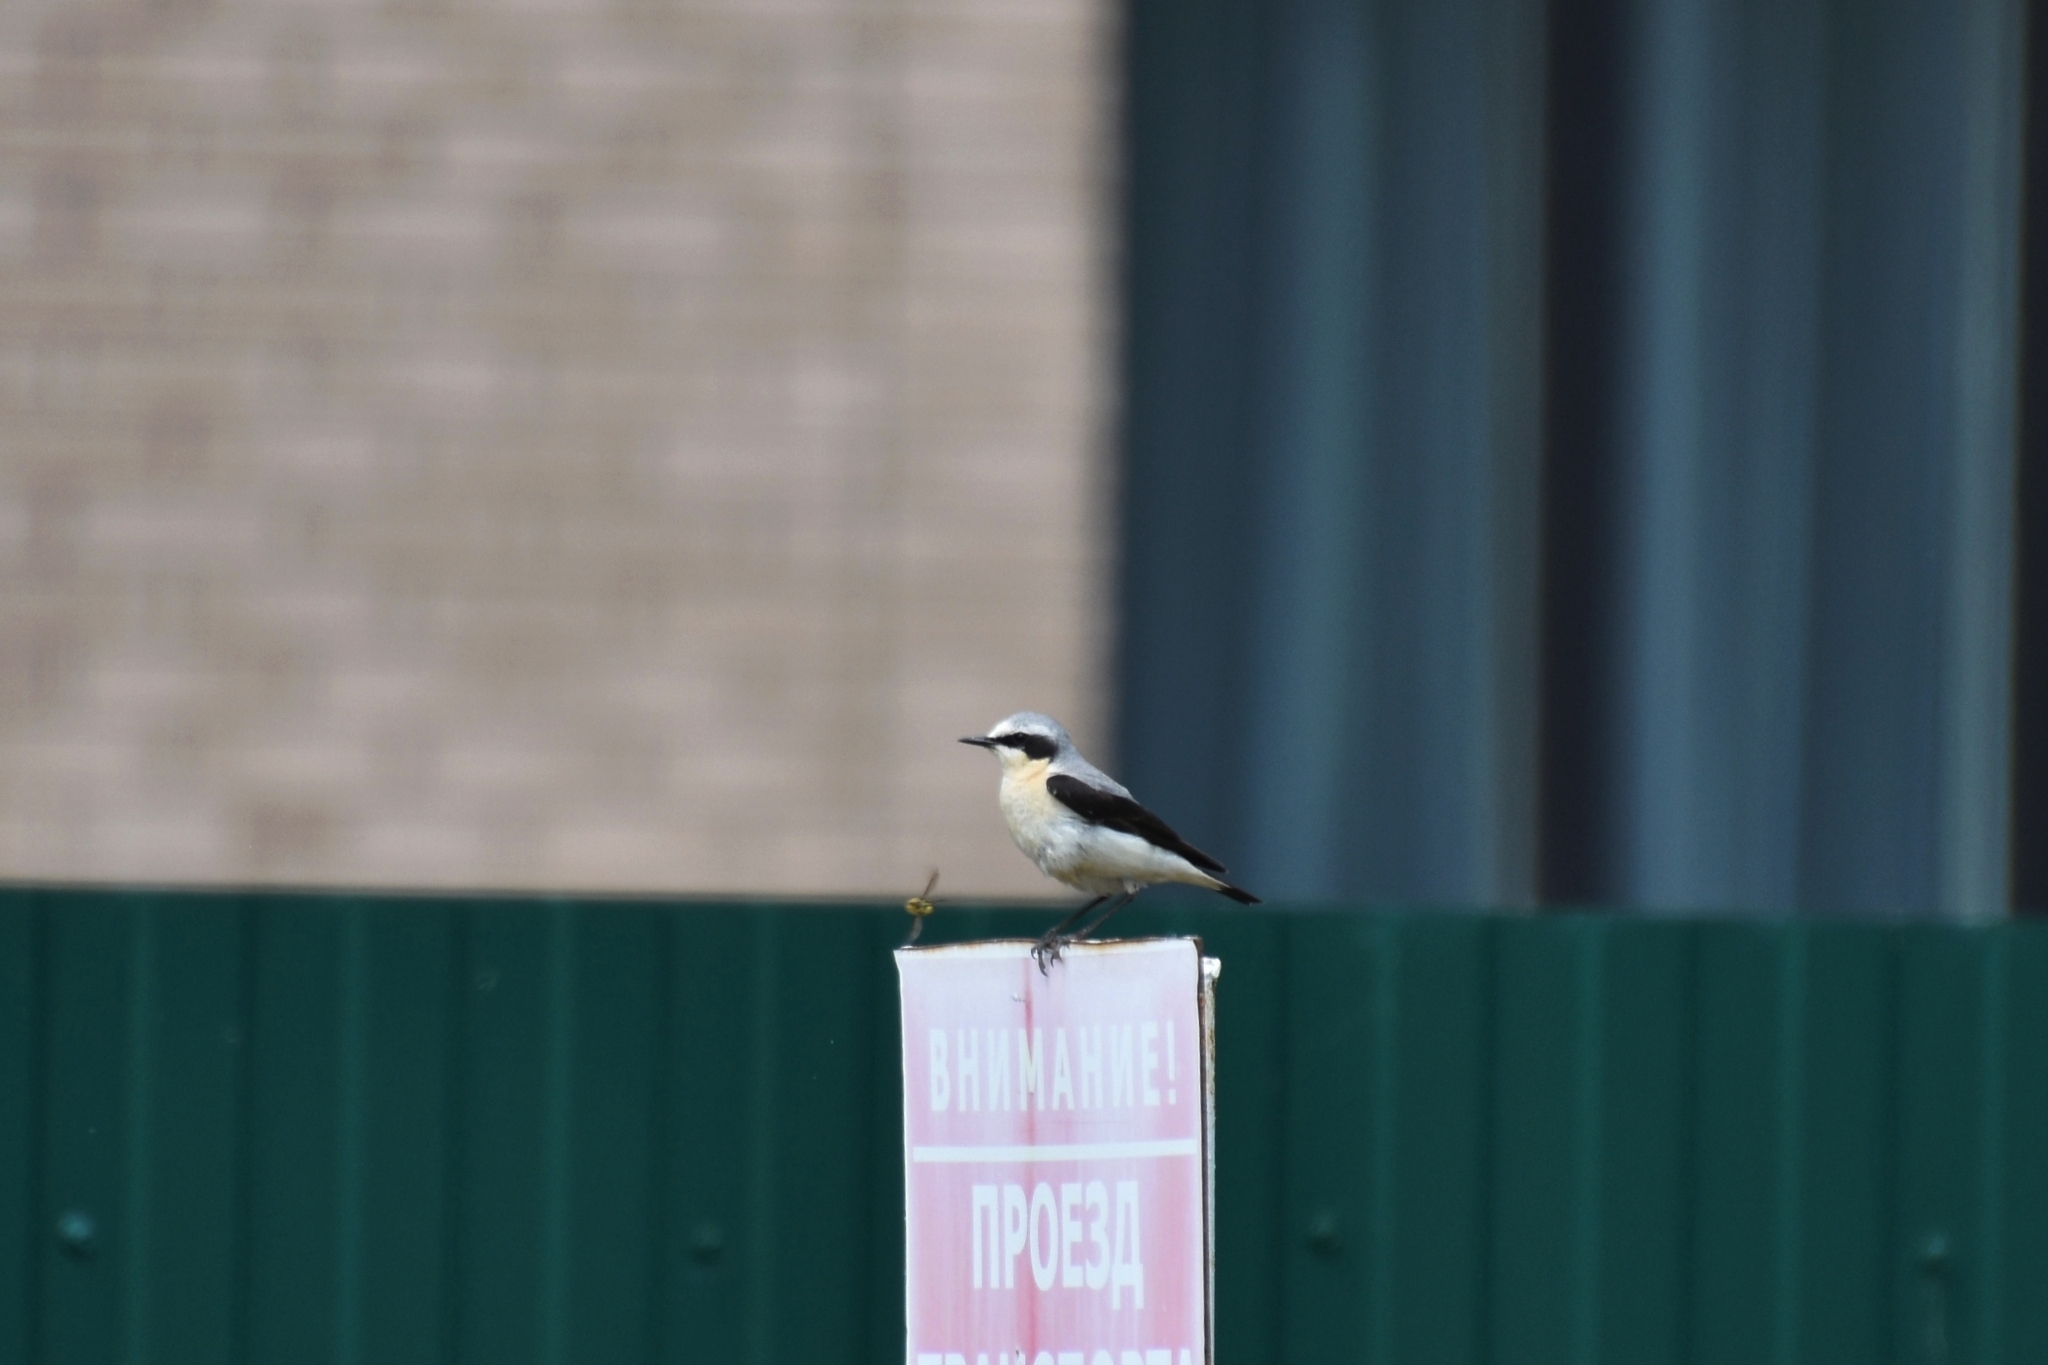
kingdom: Animalia
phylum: Chordata
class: Aves
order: Passeriformes
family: Muscicapidae
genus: Oenanthe
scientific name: Oenanthe oenanthe
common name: Northern wheatear
